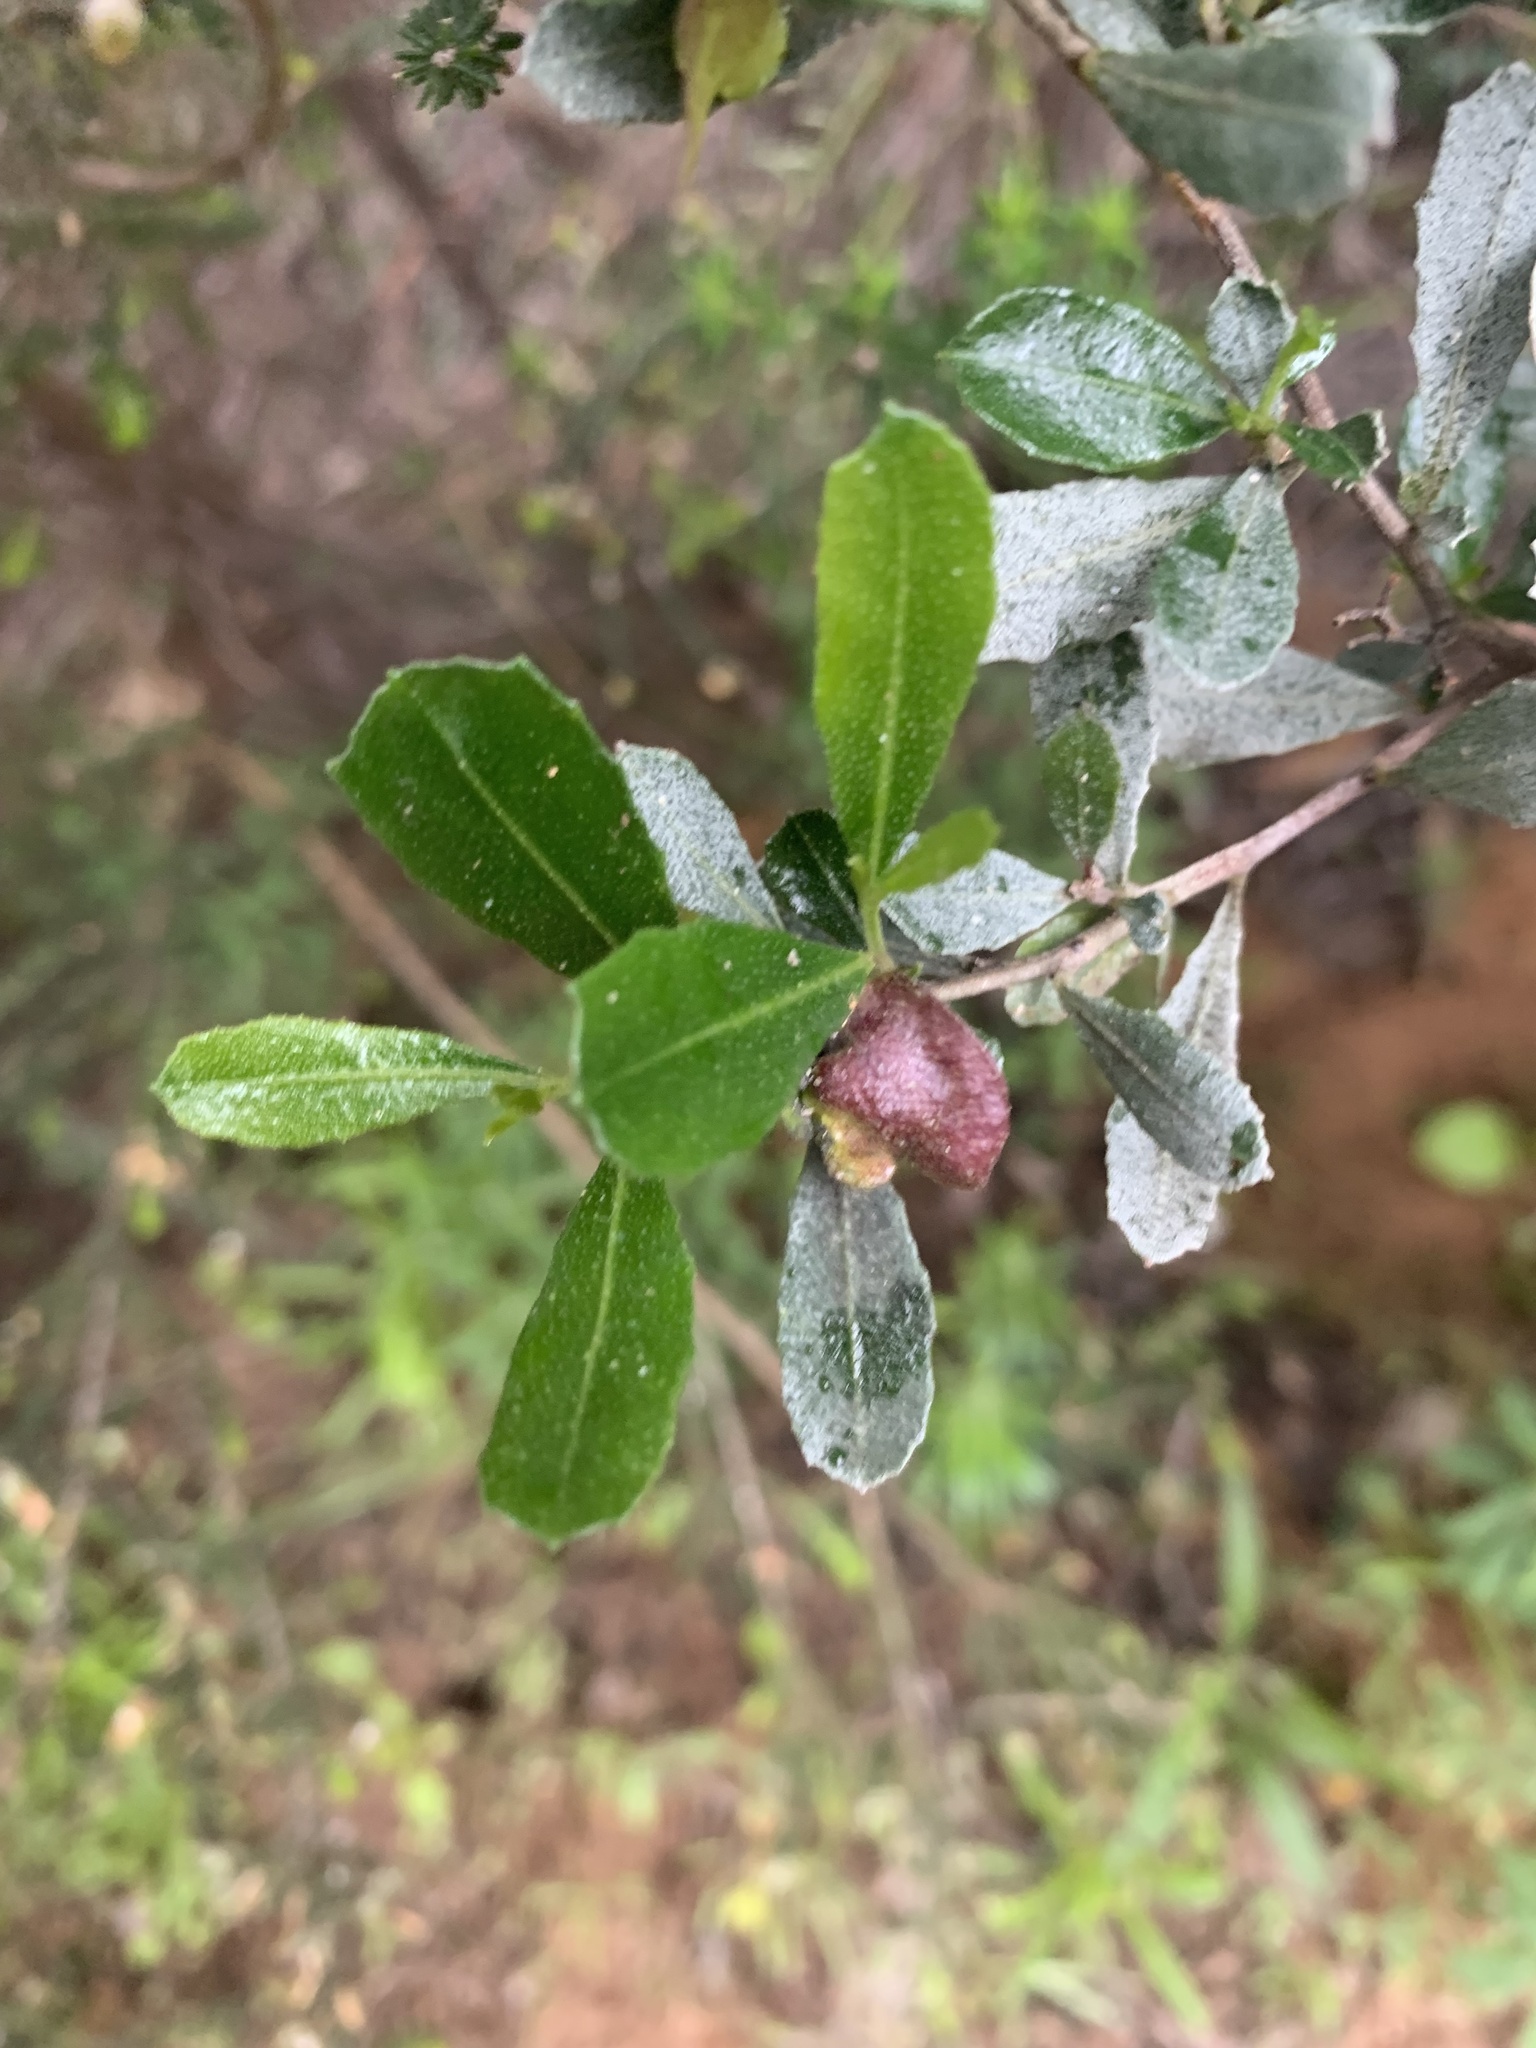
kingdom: Plantae
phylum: Tracheophyta
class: Magnoliopsida
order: Sapindales
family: Sapindaceae
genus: Dodonaea
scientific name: Dodonaea viscosa
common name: Hopbush
